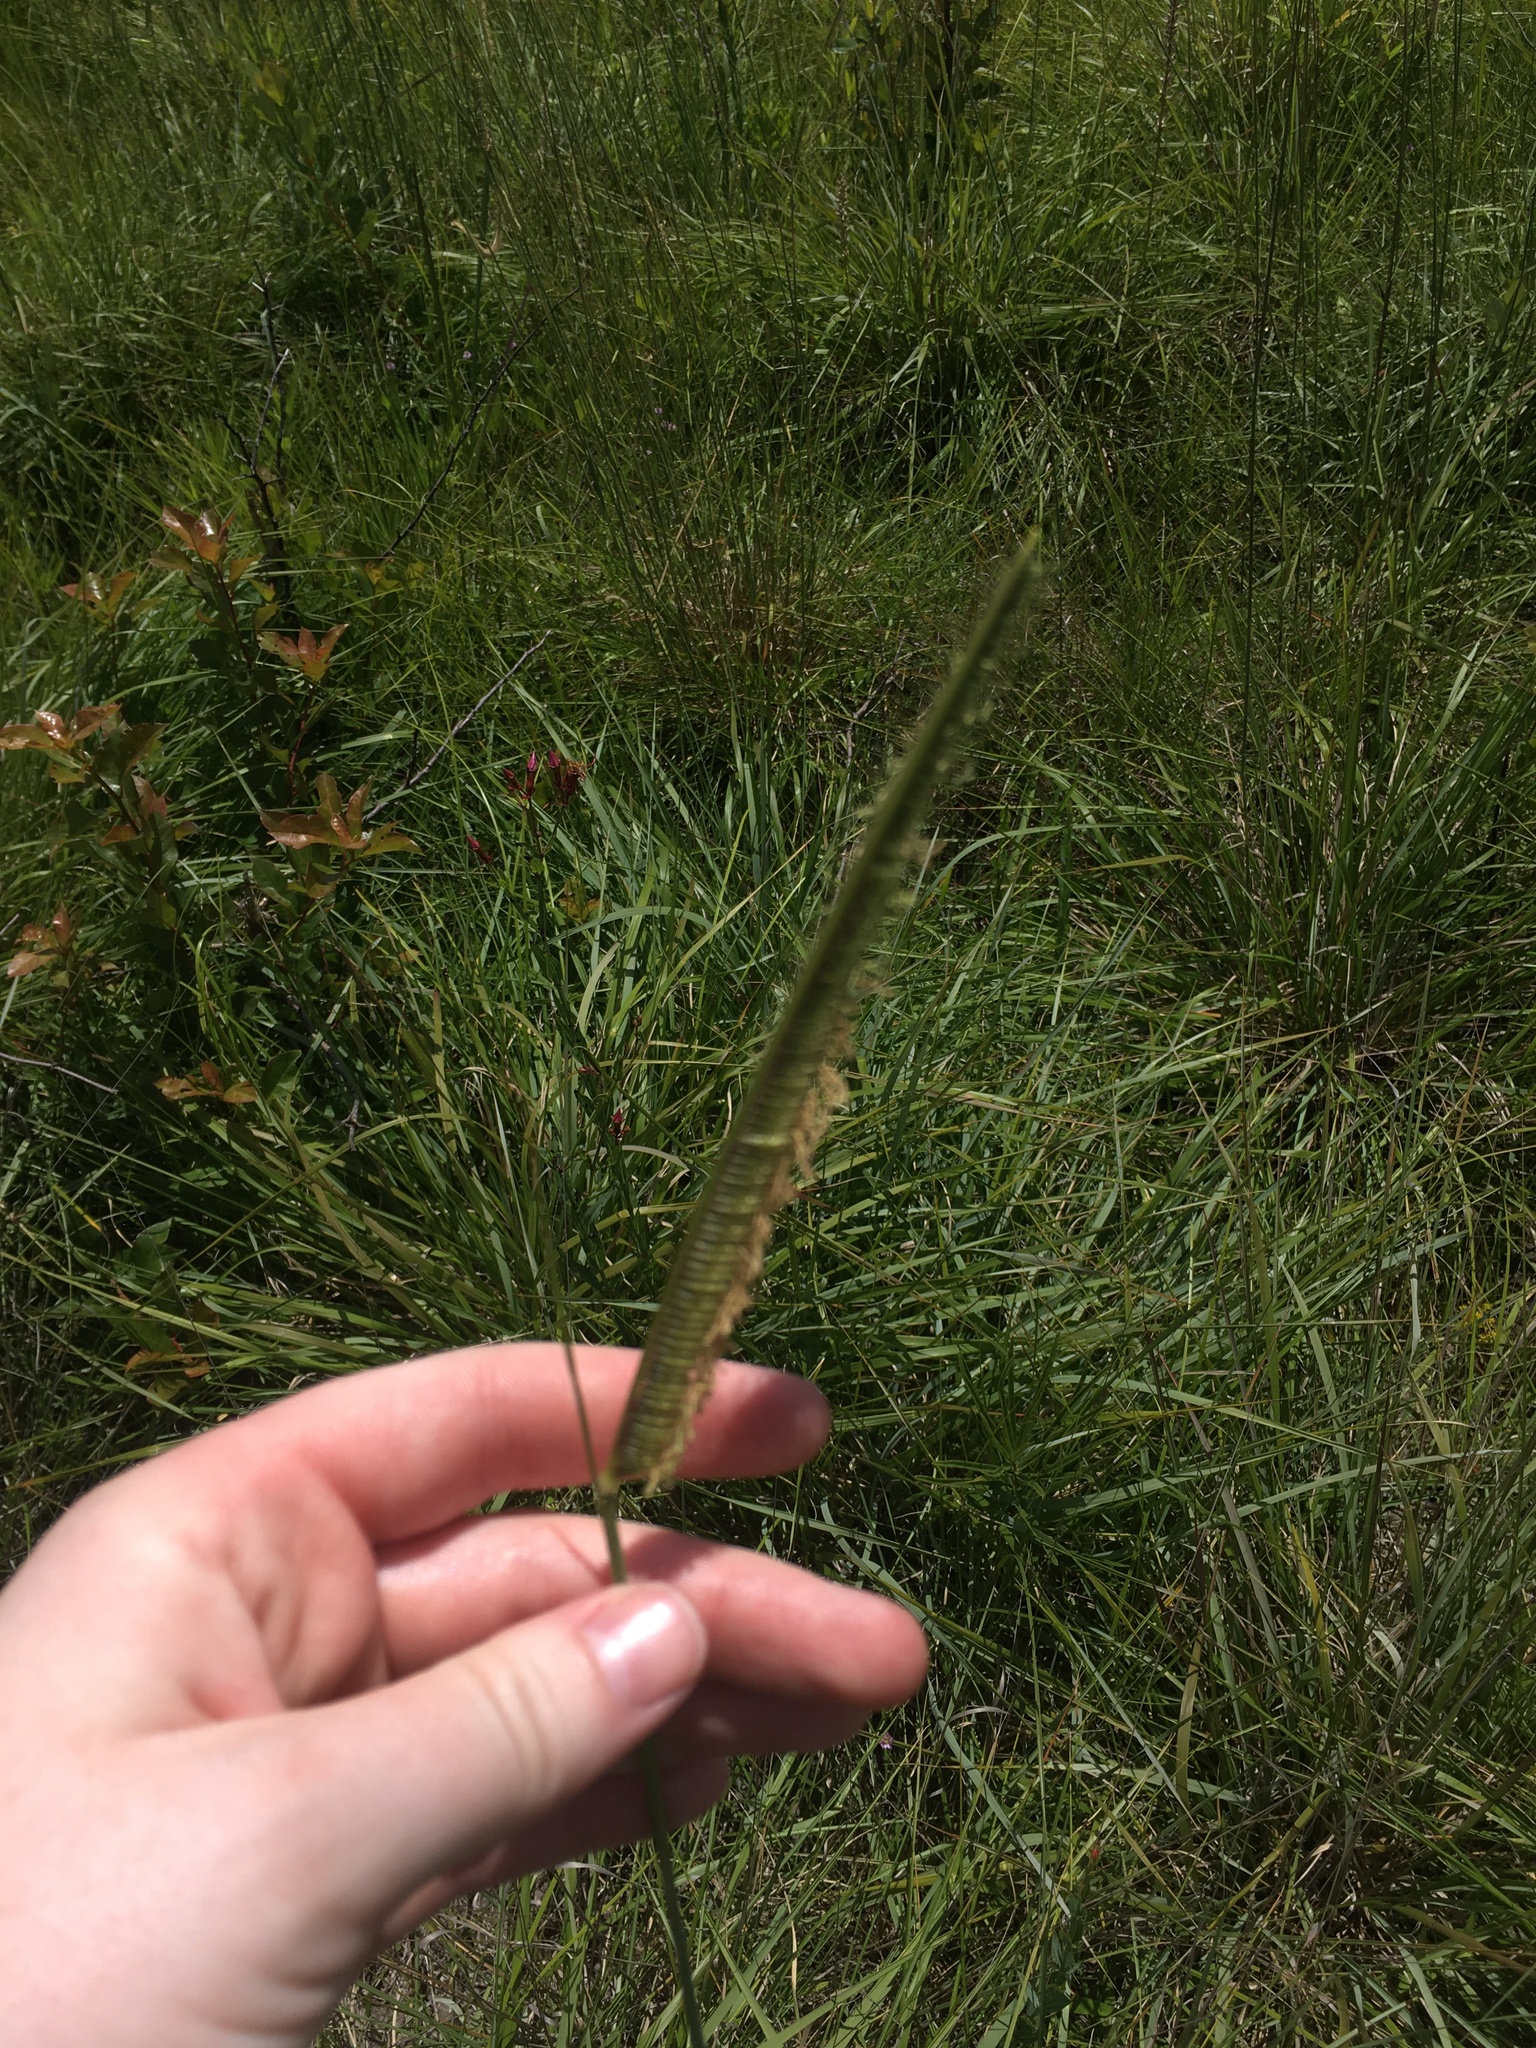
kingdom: Plantae
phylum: Tracheophyta
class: Liliopsida
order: Poales
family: Poaceae
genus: Ctenium
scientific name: Ctenium aromaticum
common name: Toothache grass
